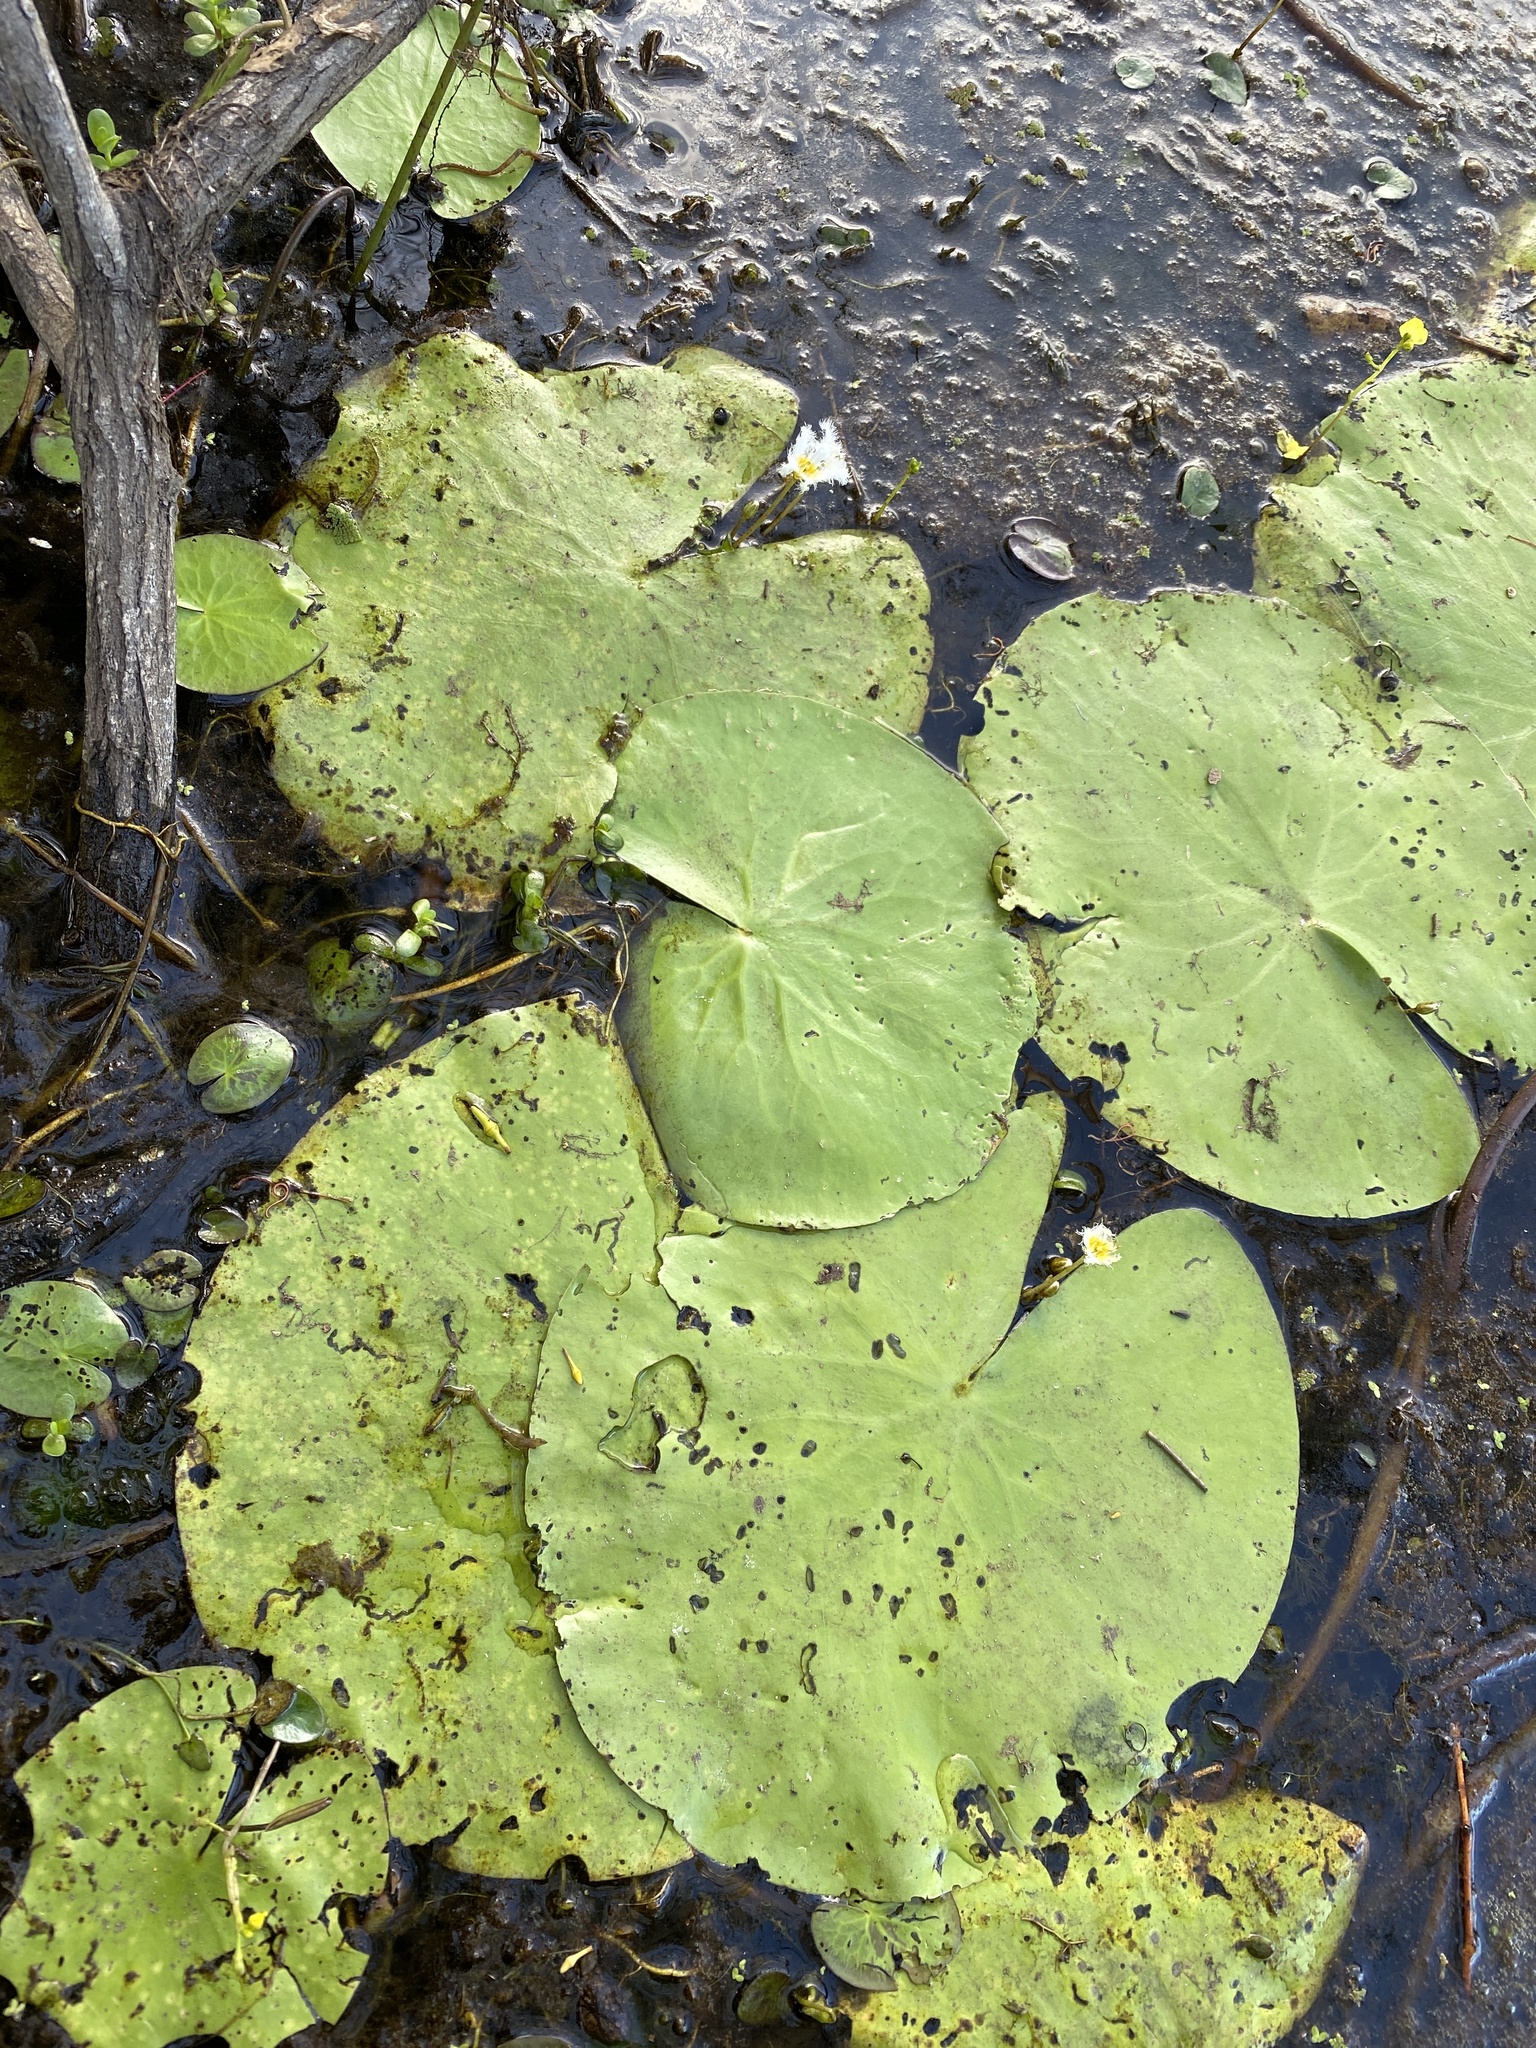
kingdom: Plantae
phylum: Tracheophyta
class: Magnoliopsida
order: Asterales
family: Menyanthaceae
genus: Nymphoides
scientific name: Nymphoides indica
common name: Water-snowflake
